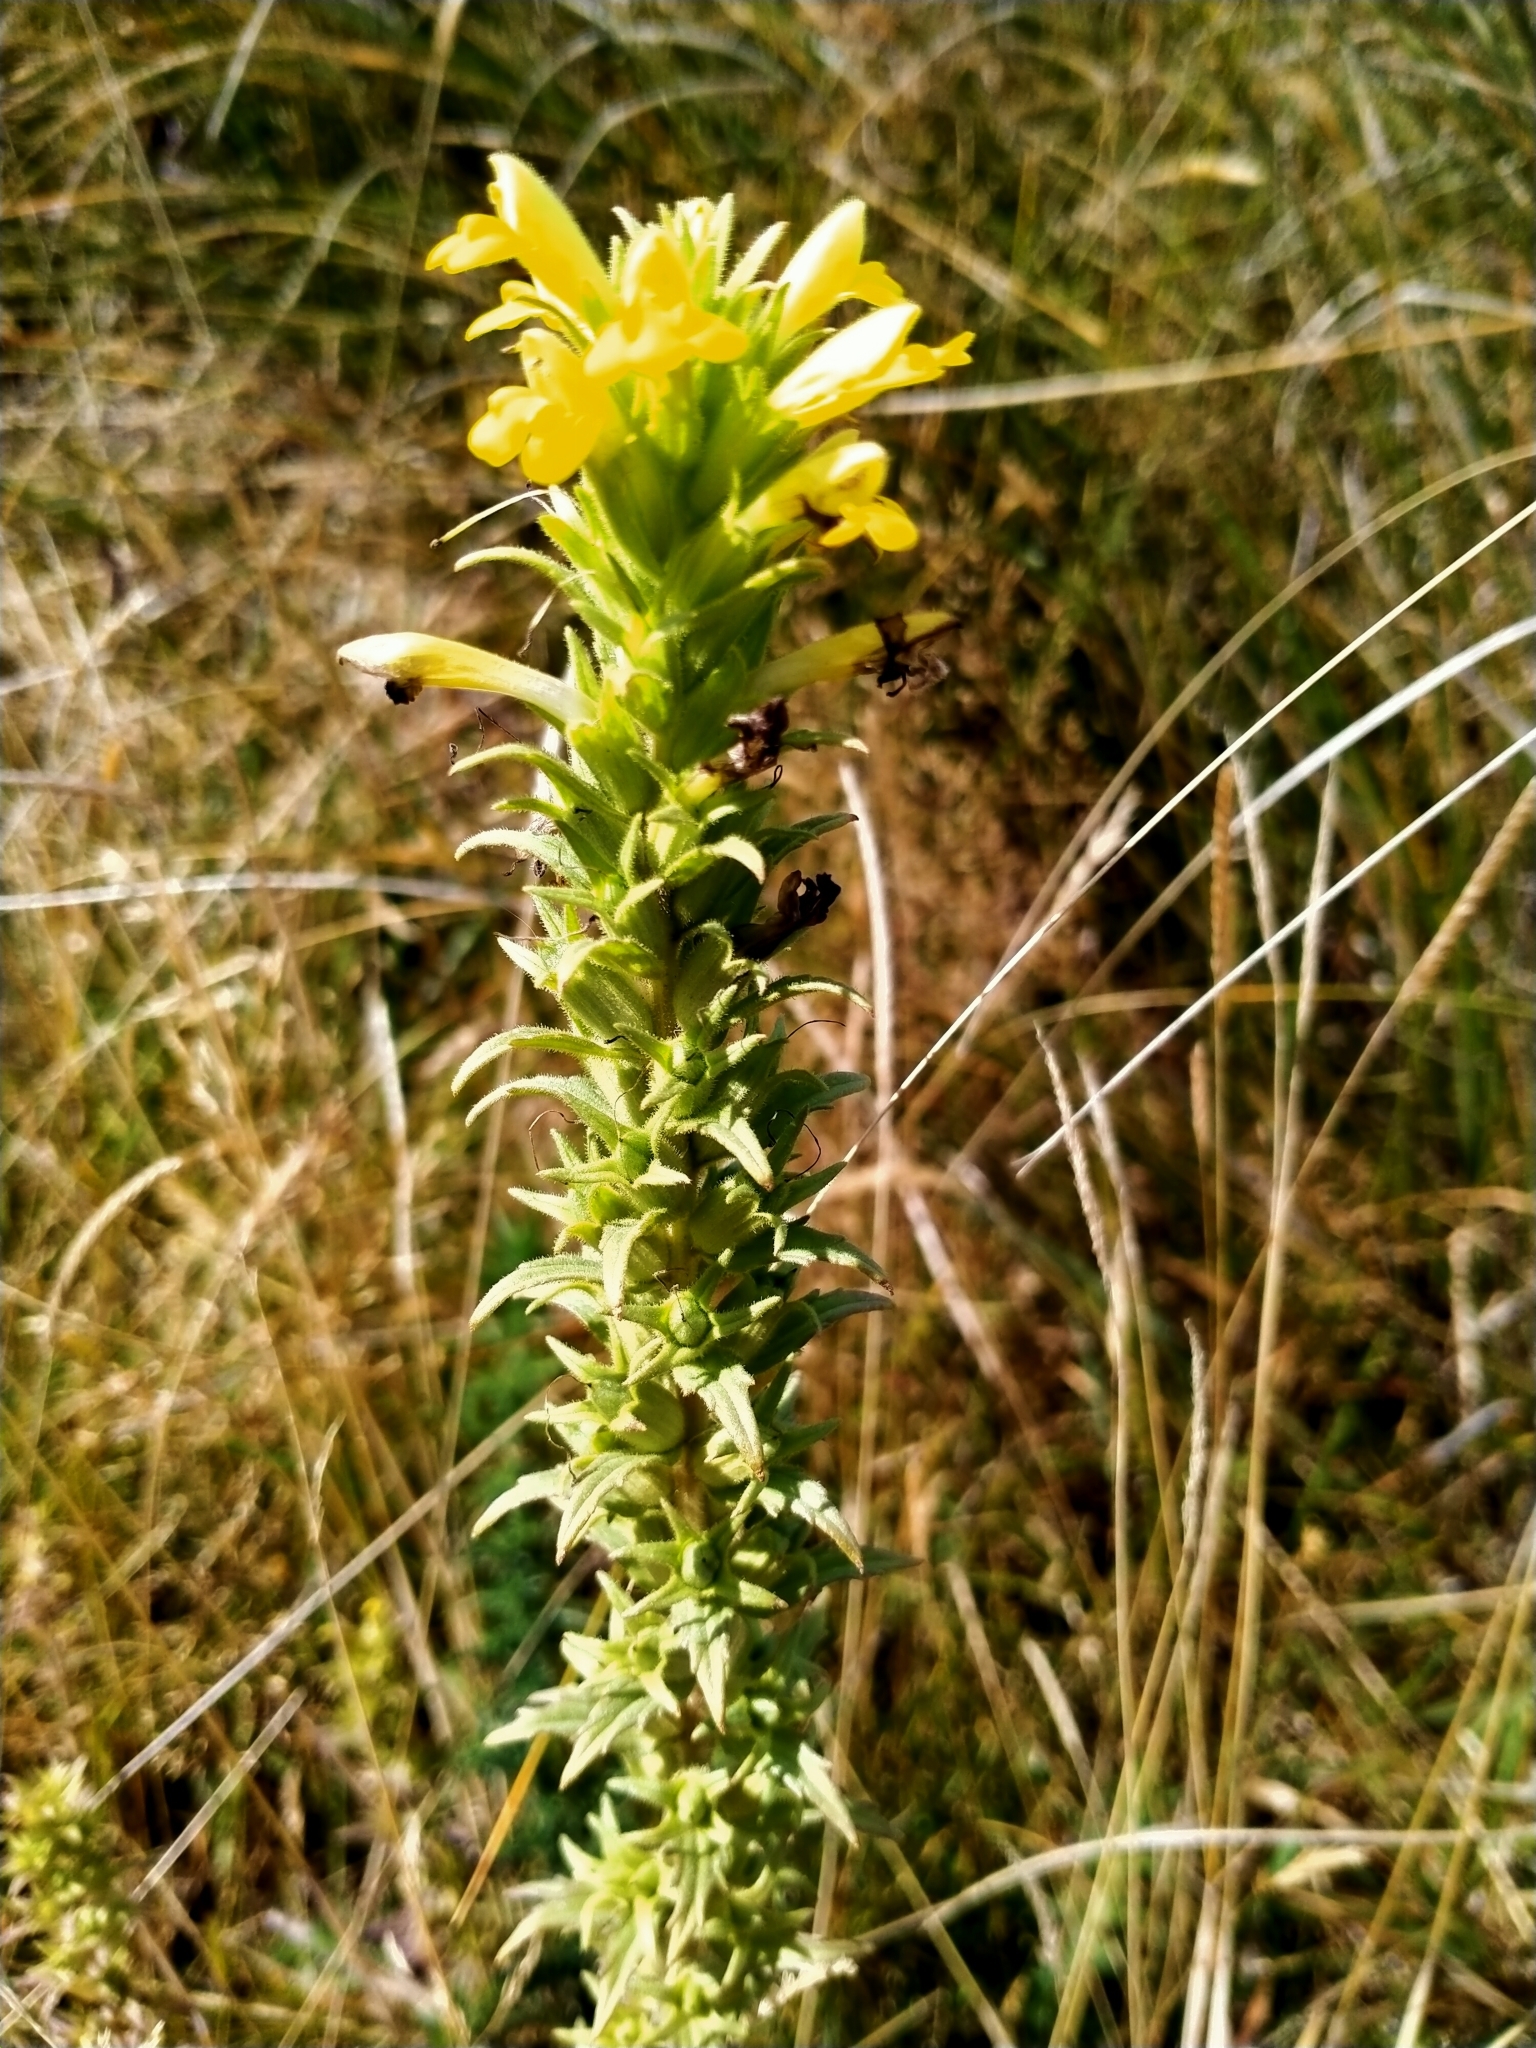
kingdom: Plantae
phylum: Tracheophyta
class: Magnoliopsida
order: Lamiales
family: Orobanchaceae
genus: Bellardia
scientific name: Bellardia viscosa
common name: Sticky parentucellia
